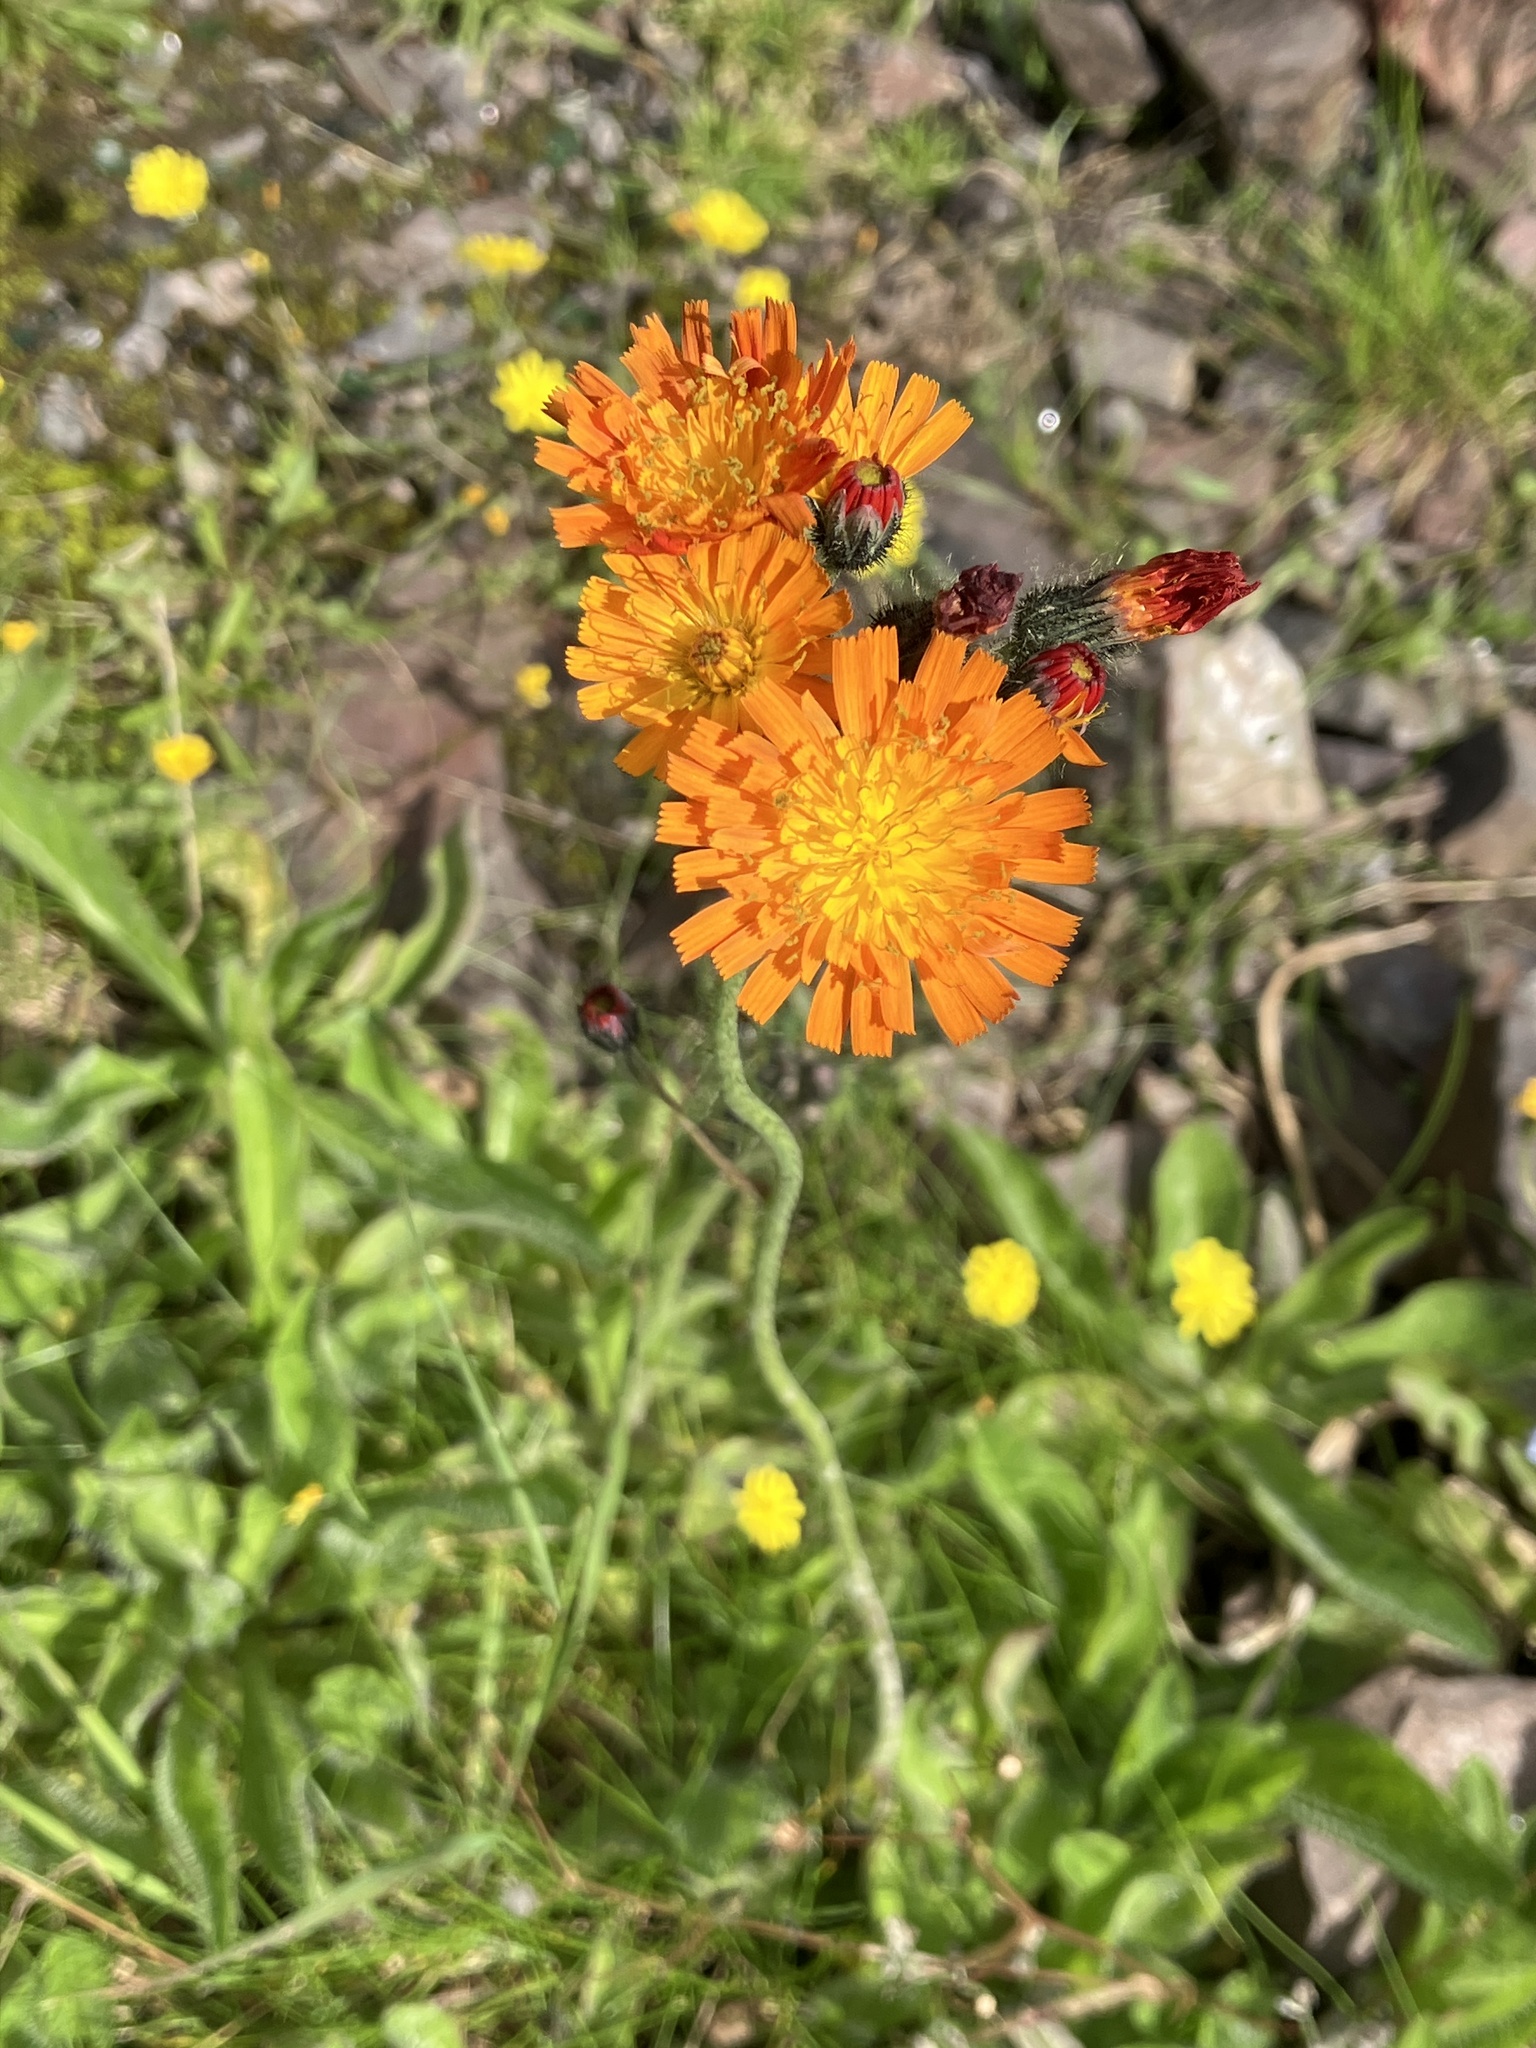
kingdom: Plantae
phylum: Tracheophyta
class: Magnoliopsida
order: Asterales
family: Asteraceae
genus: Pilosella
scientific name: Pilosella aurantiaca
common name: Fox-and-cubs
